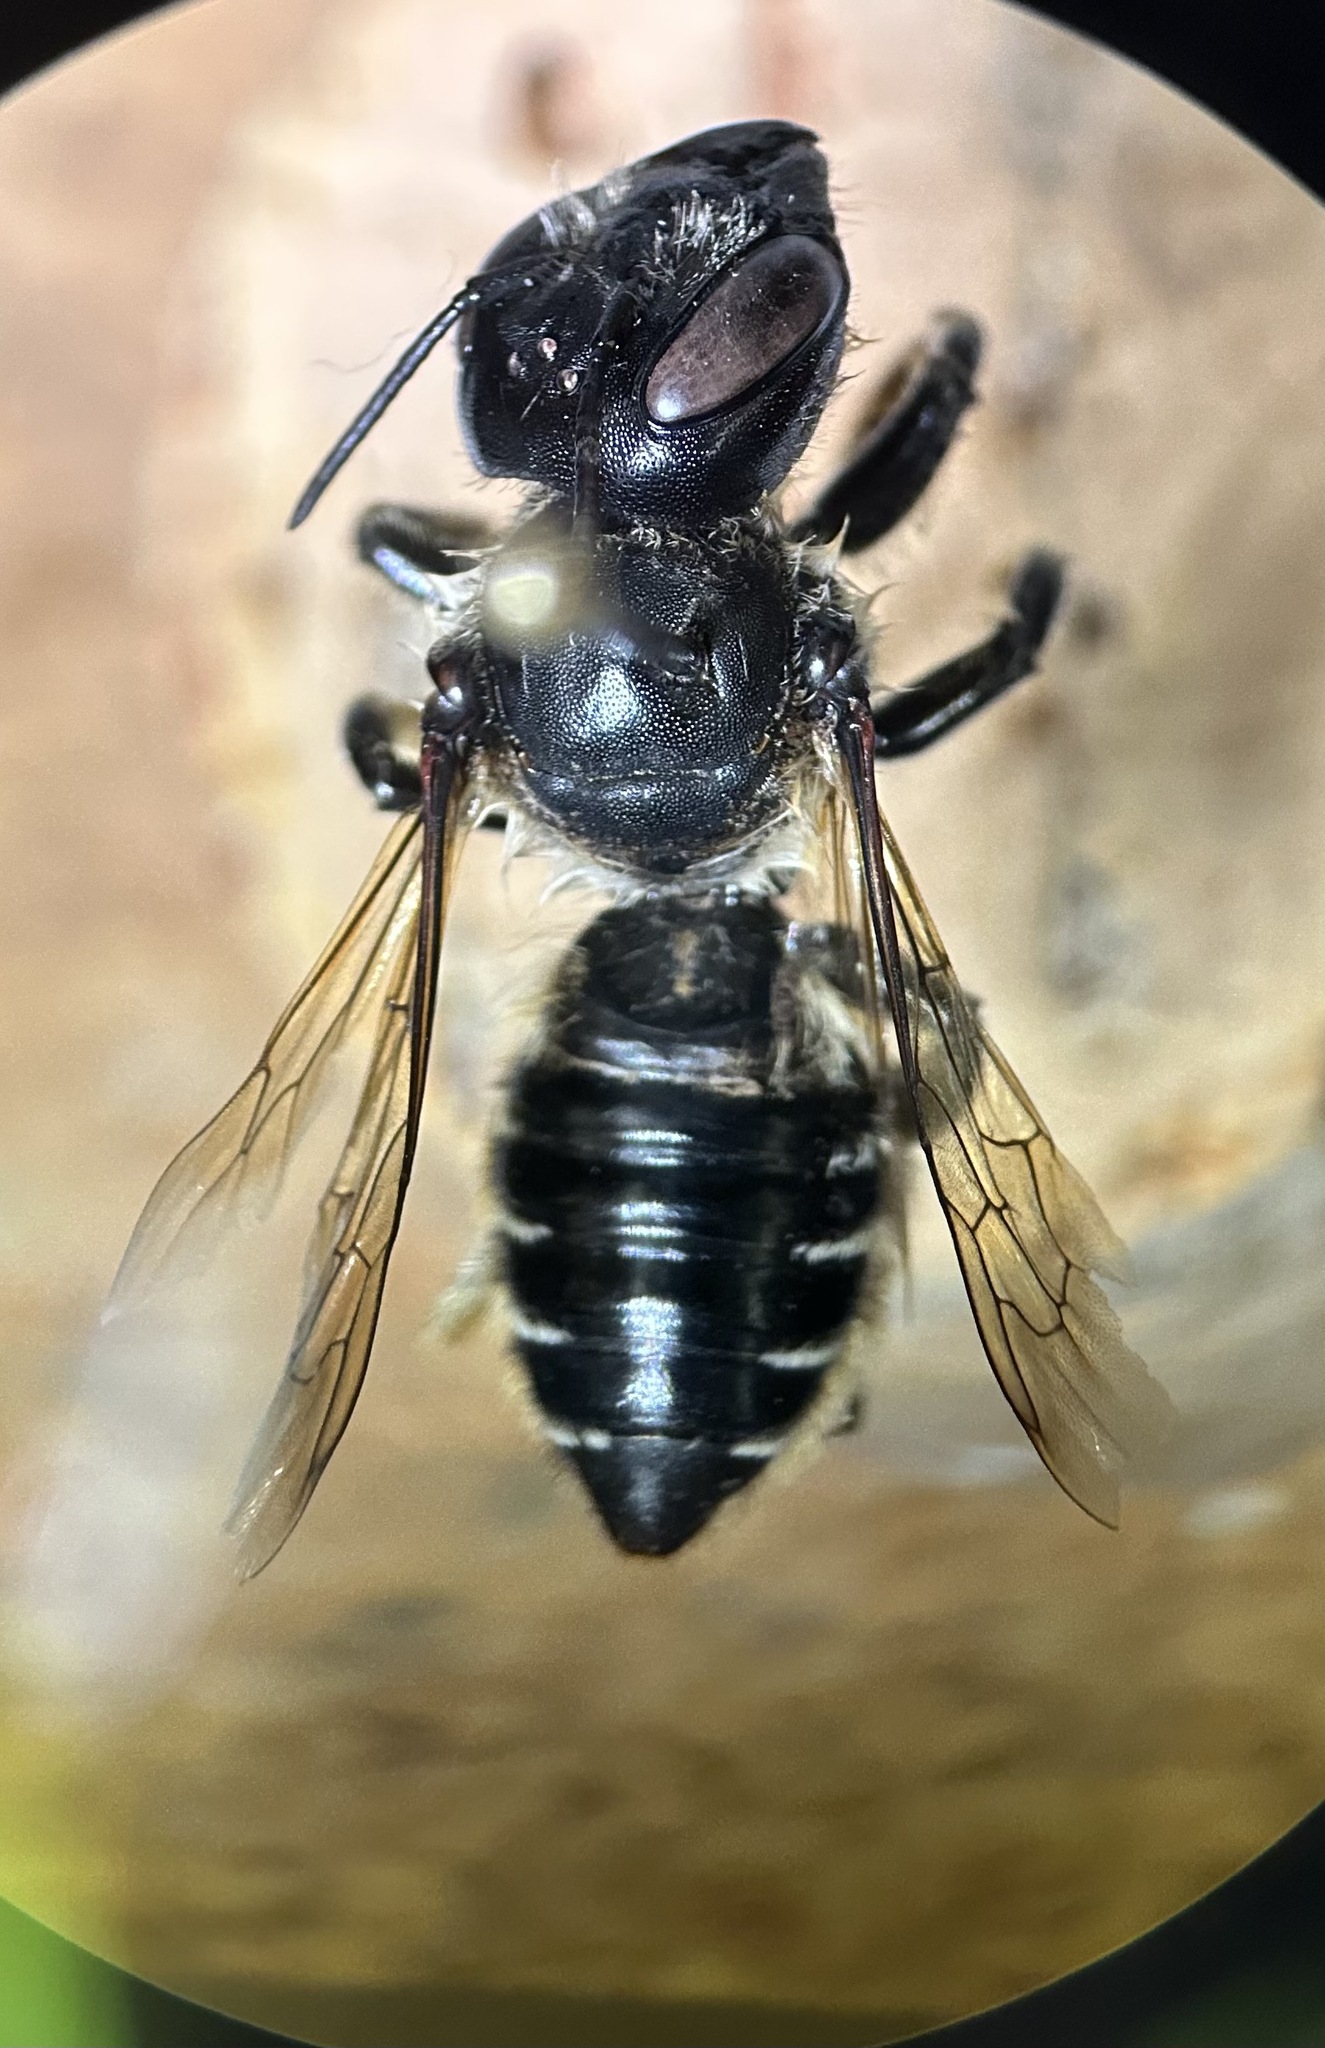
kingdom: Animalia
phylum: Arthropoda
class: Insecta
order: Hymenoptera
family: Megachilidae
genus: Megachile
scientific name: Megachile inermis
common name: Unarmed leafcutter bee
